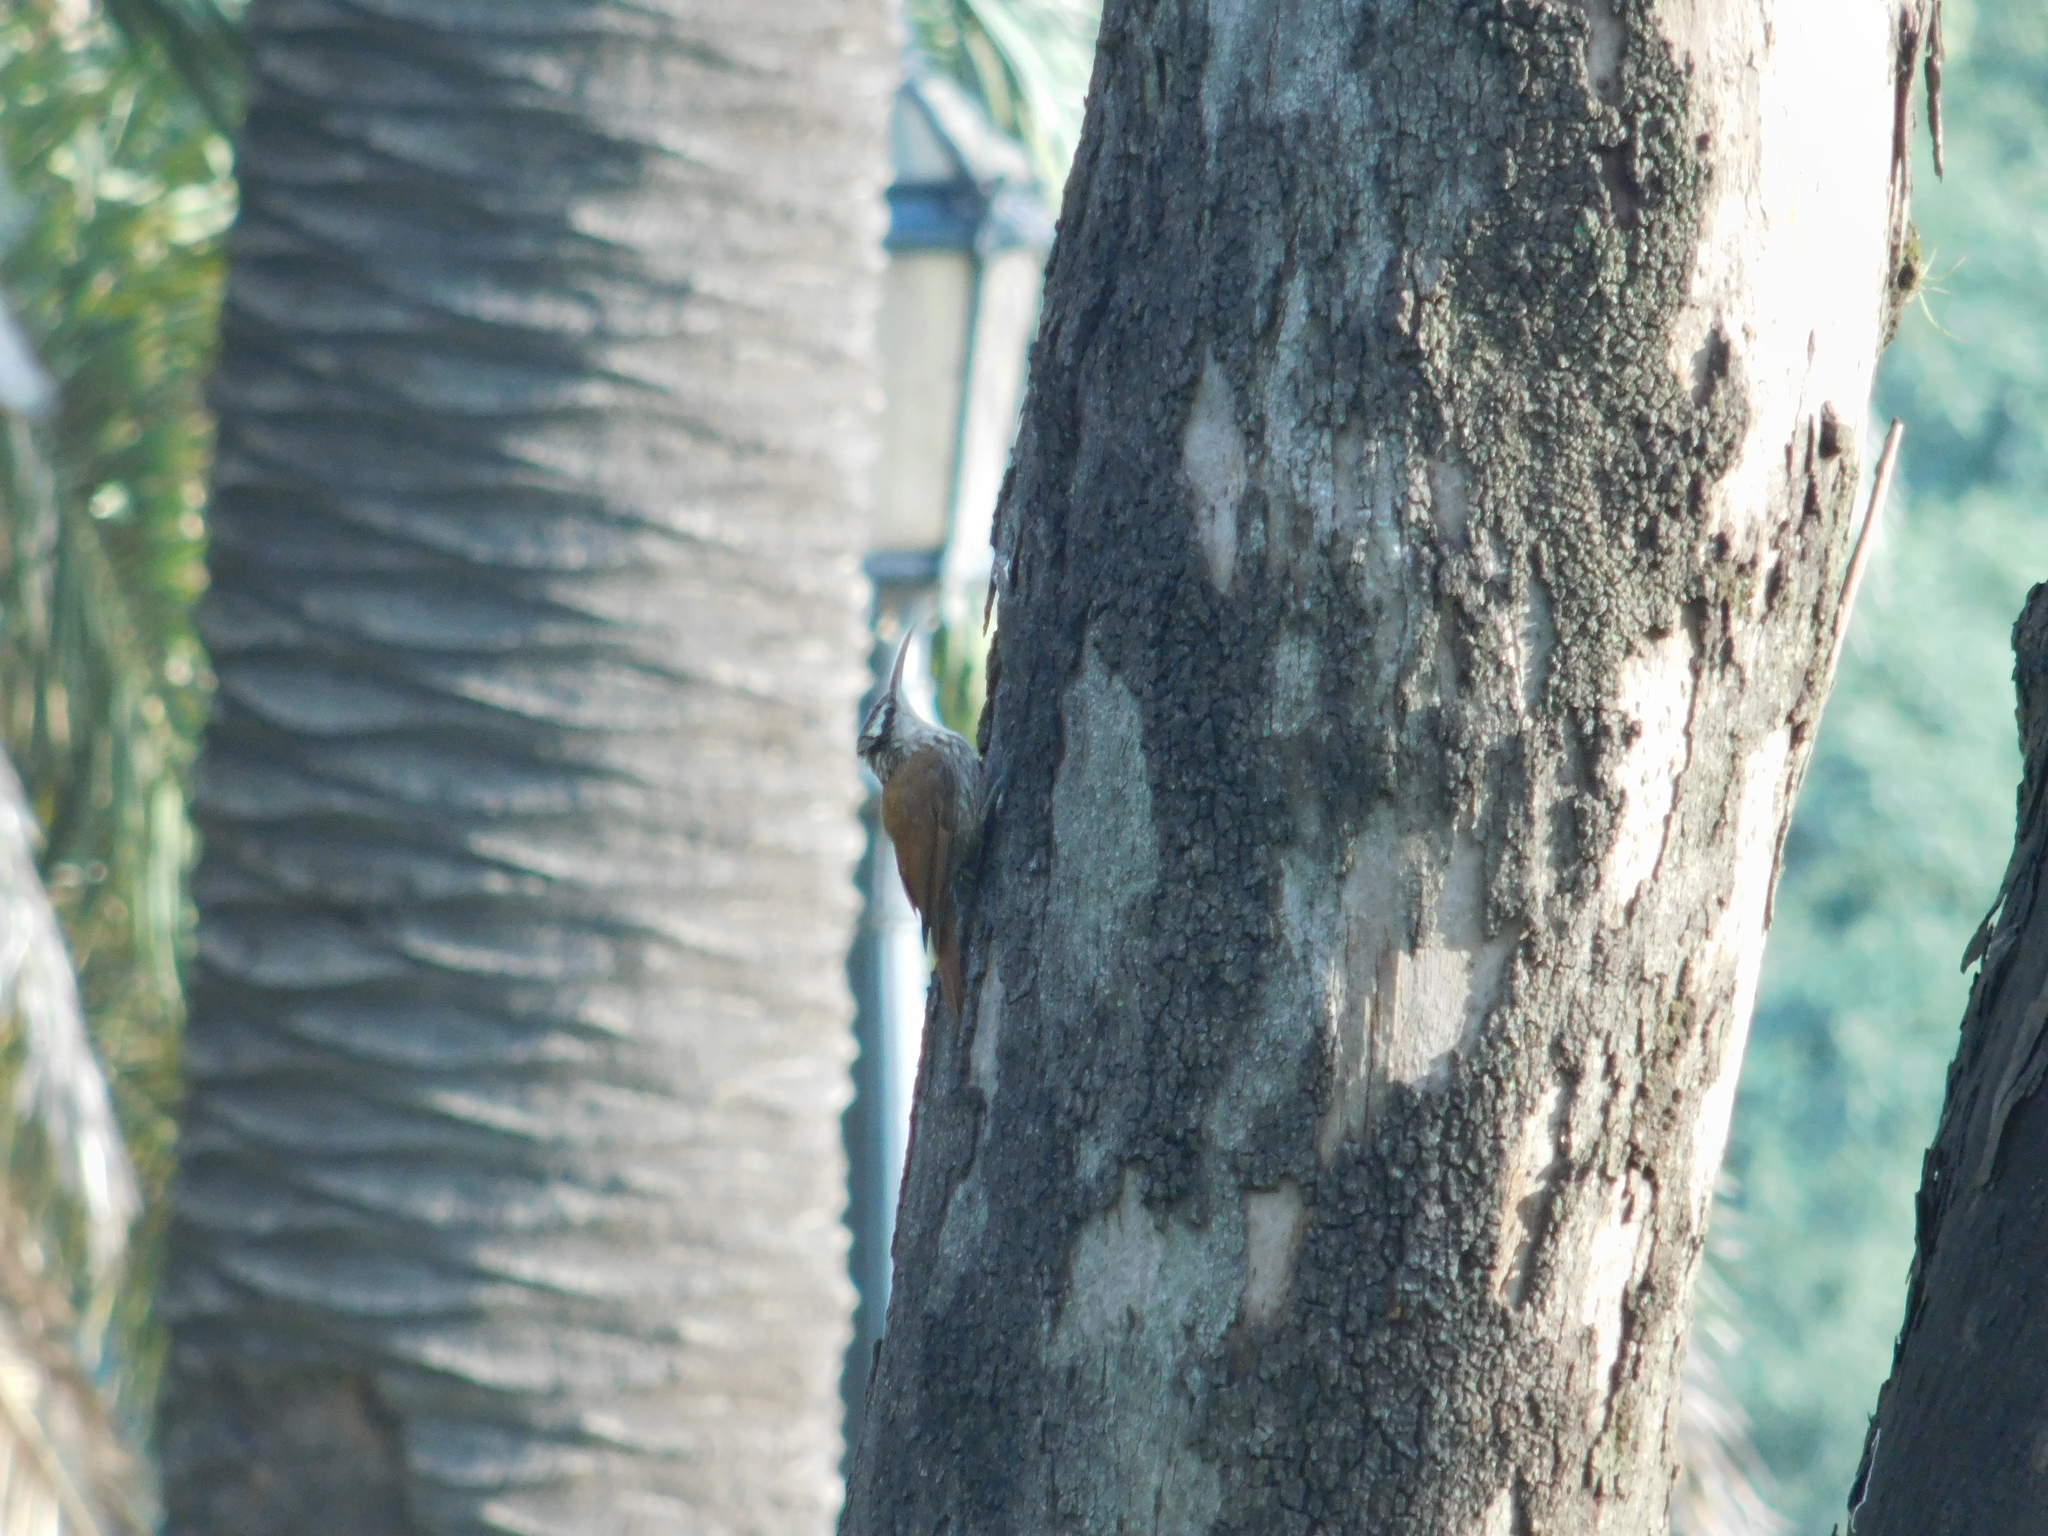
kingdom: Animalia
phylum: Chordata
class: Aves
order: Passeriformes
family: Furnariidae
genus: Lepidocolaptes
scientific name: Lepidocolaptes angustirostris
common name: Narrow-billed woodcreeper
